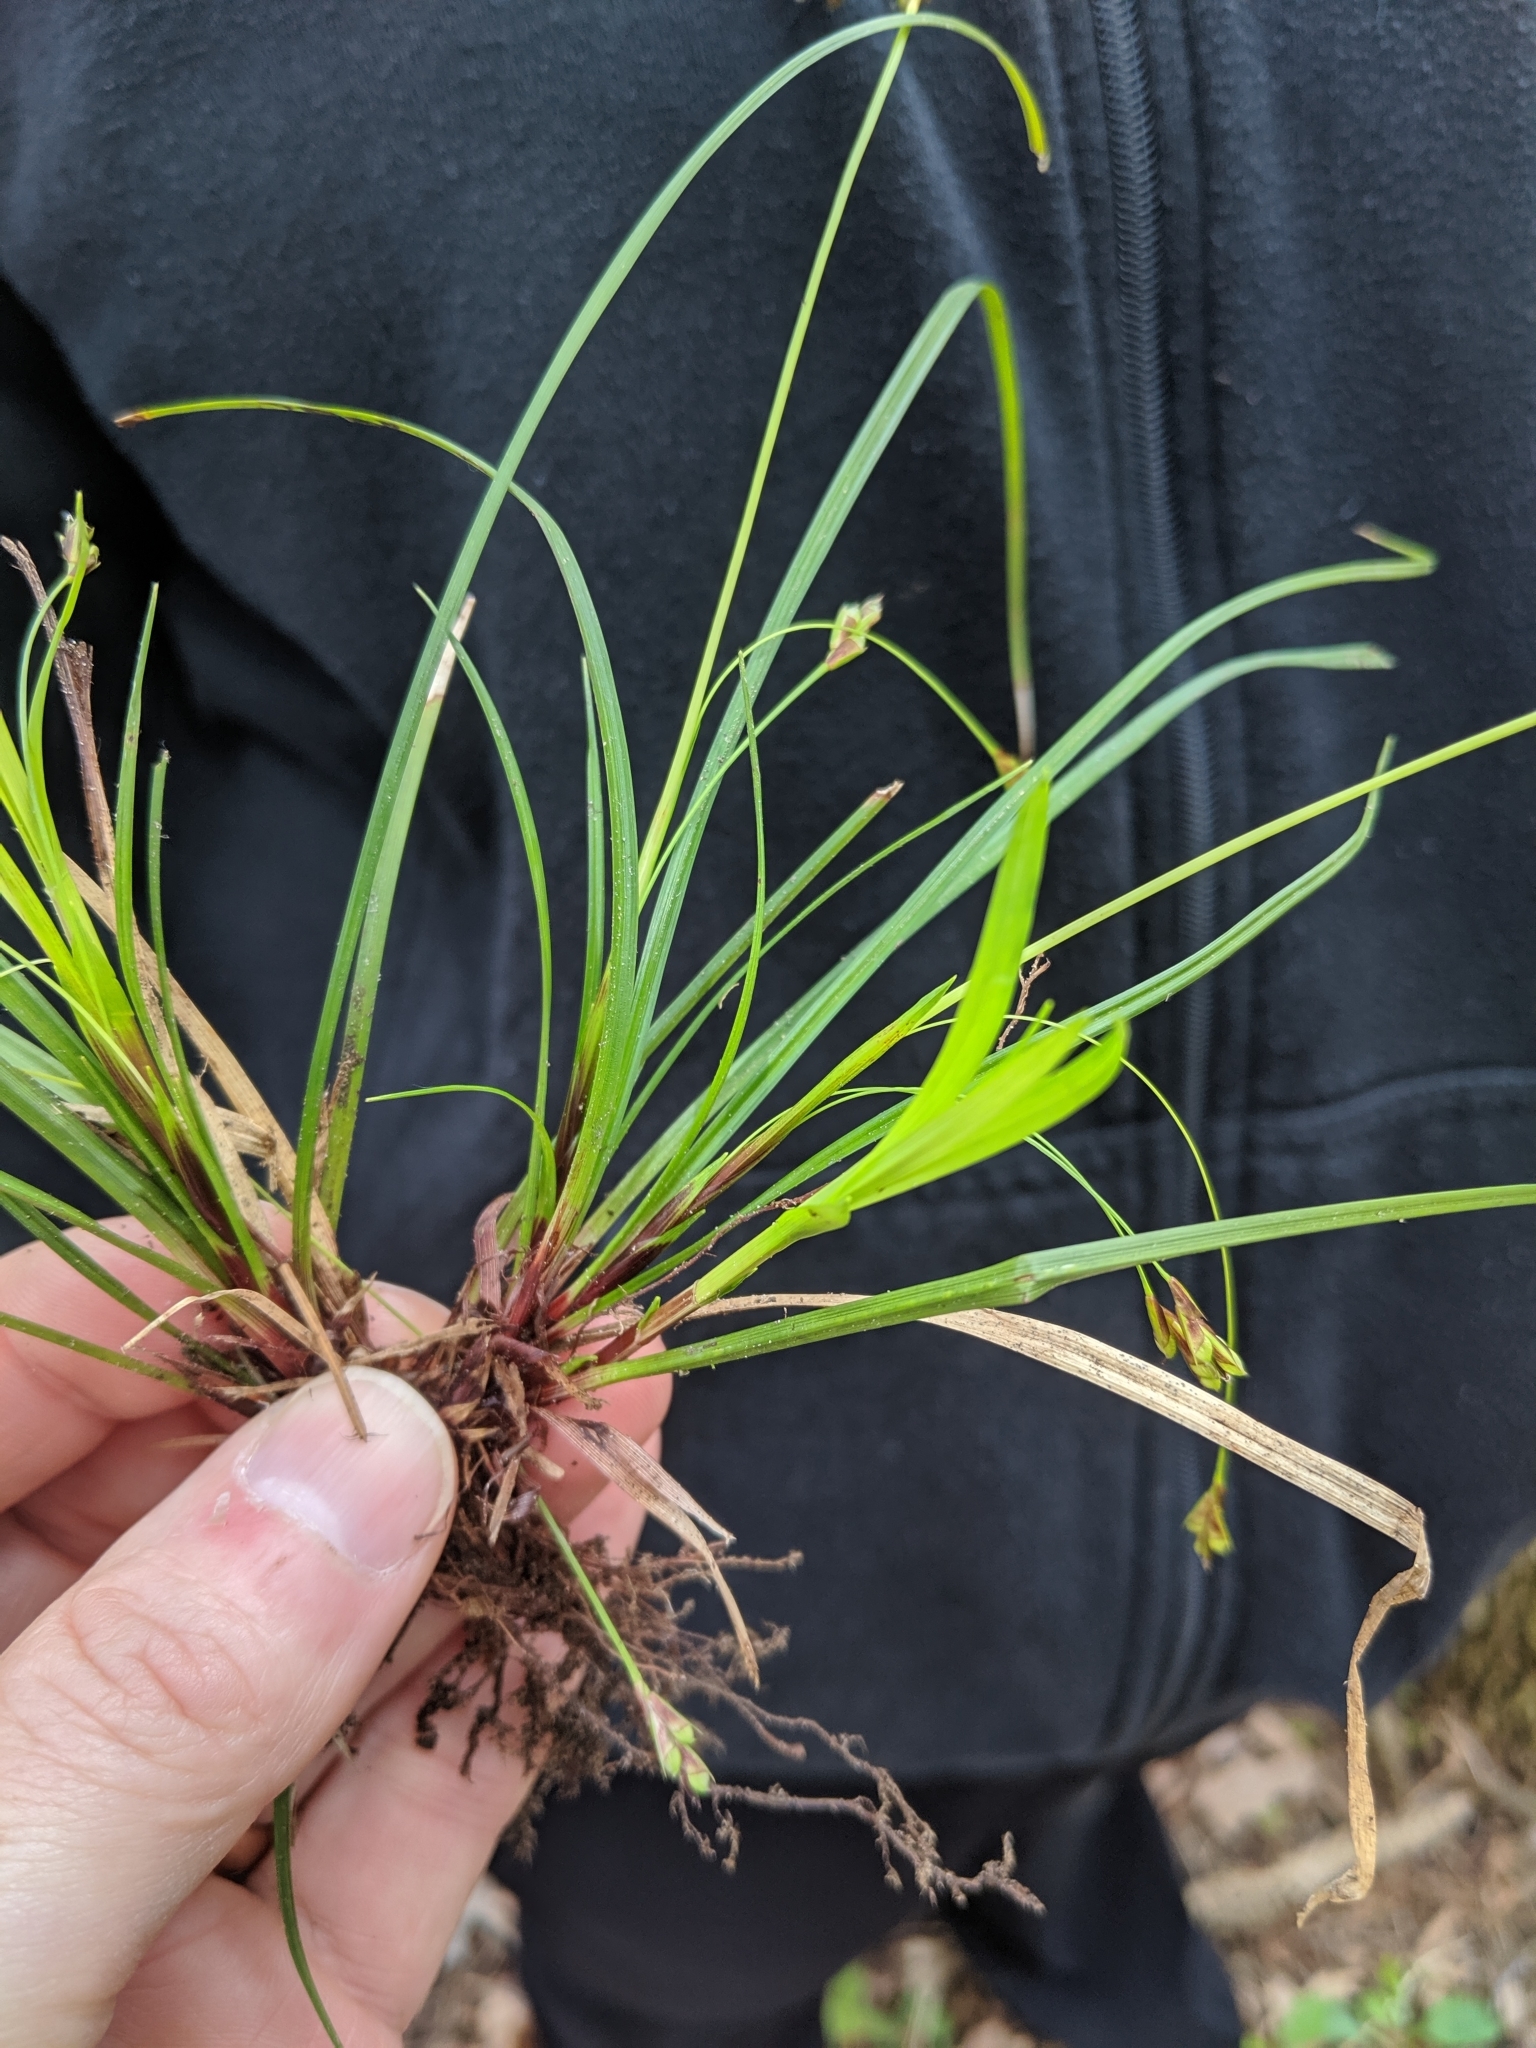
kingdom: Plantae
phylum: Tracheophyta
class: Liliopsida
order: Poales
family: Cyperaceae
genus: Carex
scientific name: Carex pedunculata
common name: Pedunculate sedge
